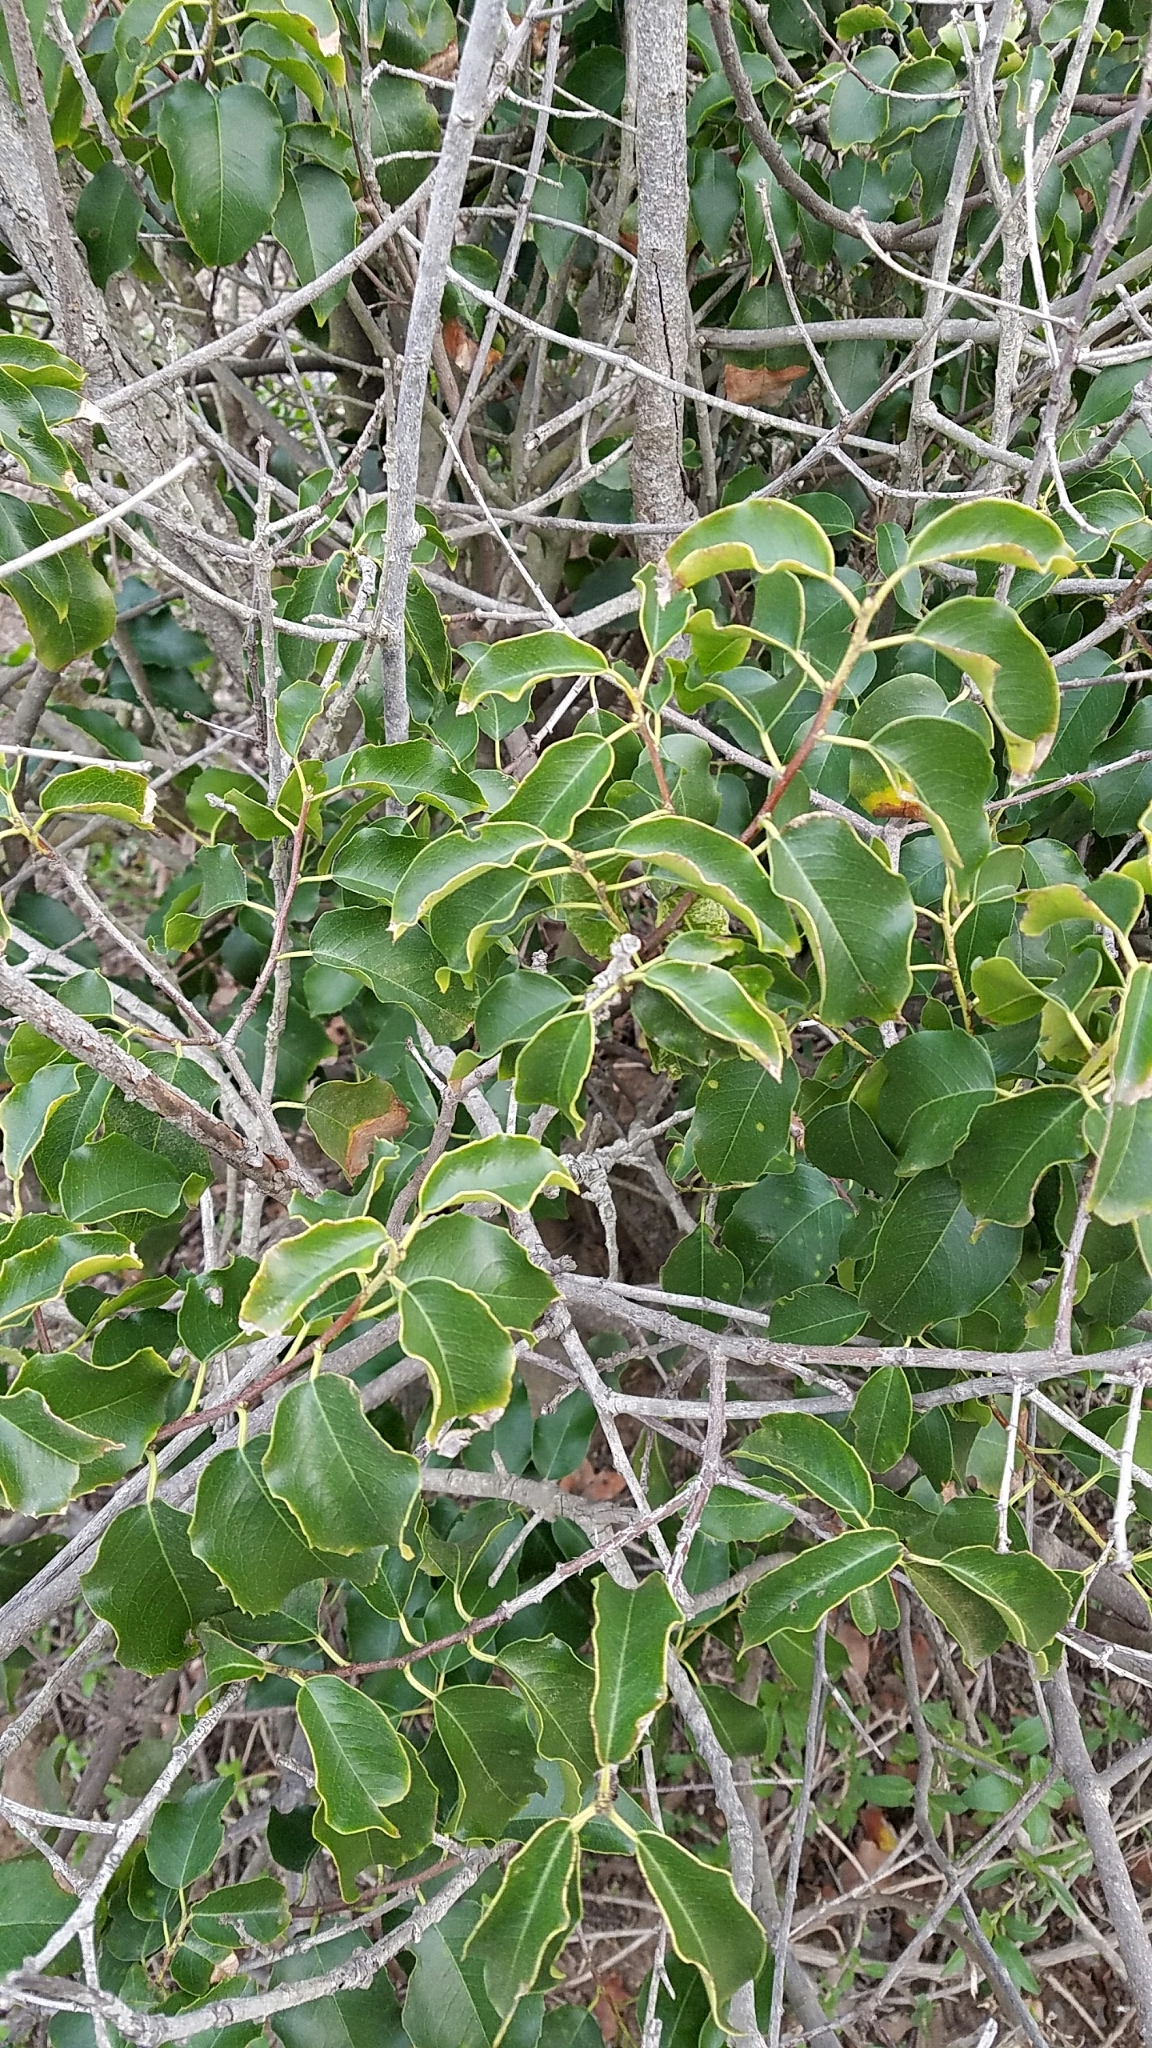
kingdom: Plantae
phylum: Tracheophyta
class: Magnoliopsida
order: Sapindales
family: Anacardiaceae
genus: Rhus
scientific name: Rhus ovata
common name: Sugar sumac
